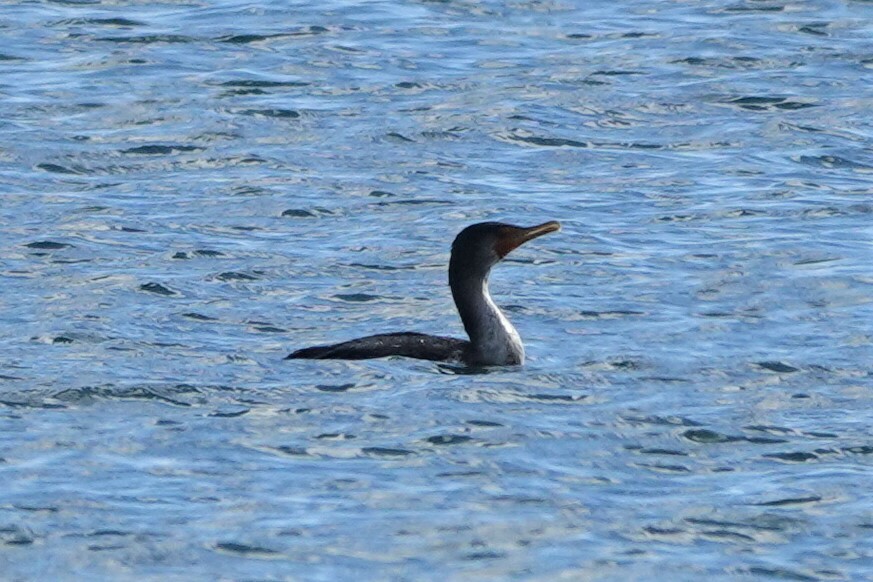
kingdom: Animalia
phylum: Chordata
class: Aves
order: Suliformes
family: Phalacrocoracidae
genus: Phalacrocorax
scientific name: Phalacrocorax auritus
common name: Double-crested cormorant
